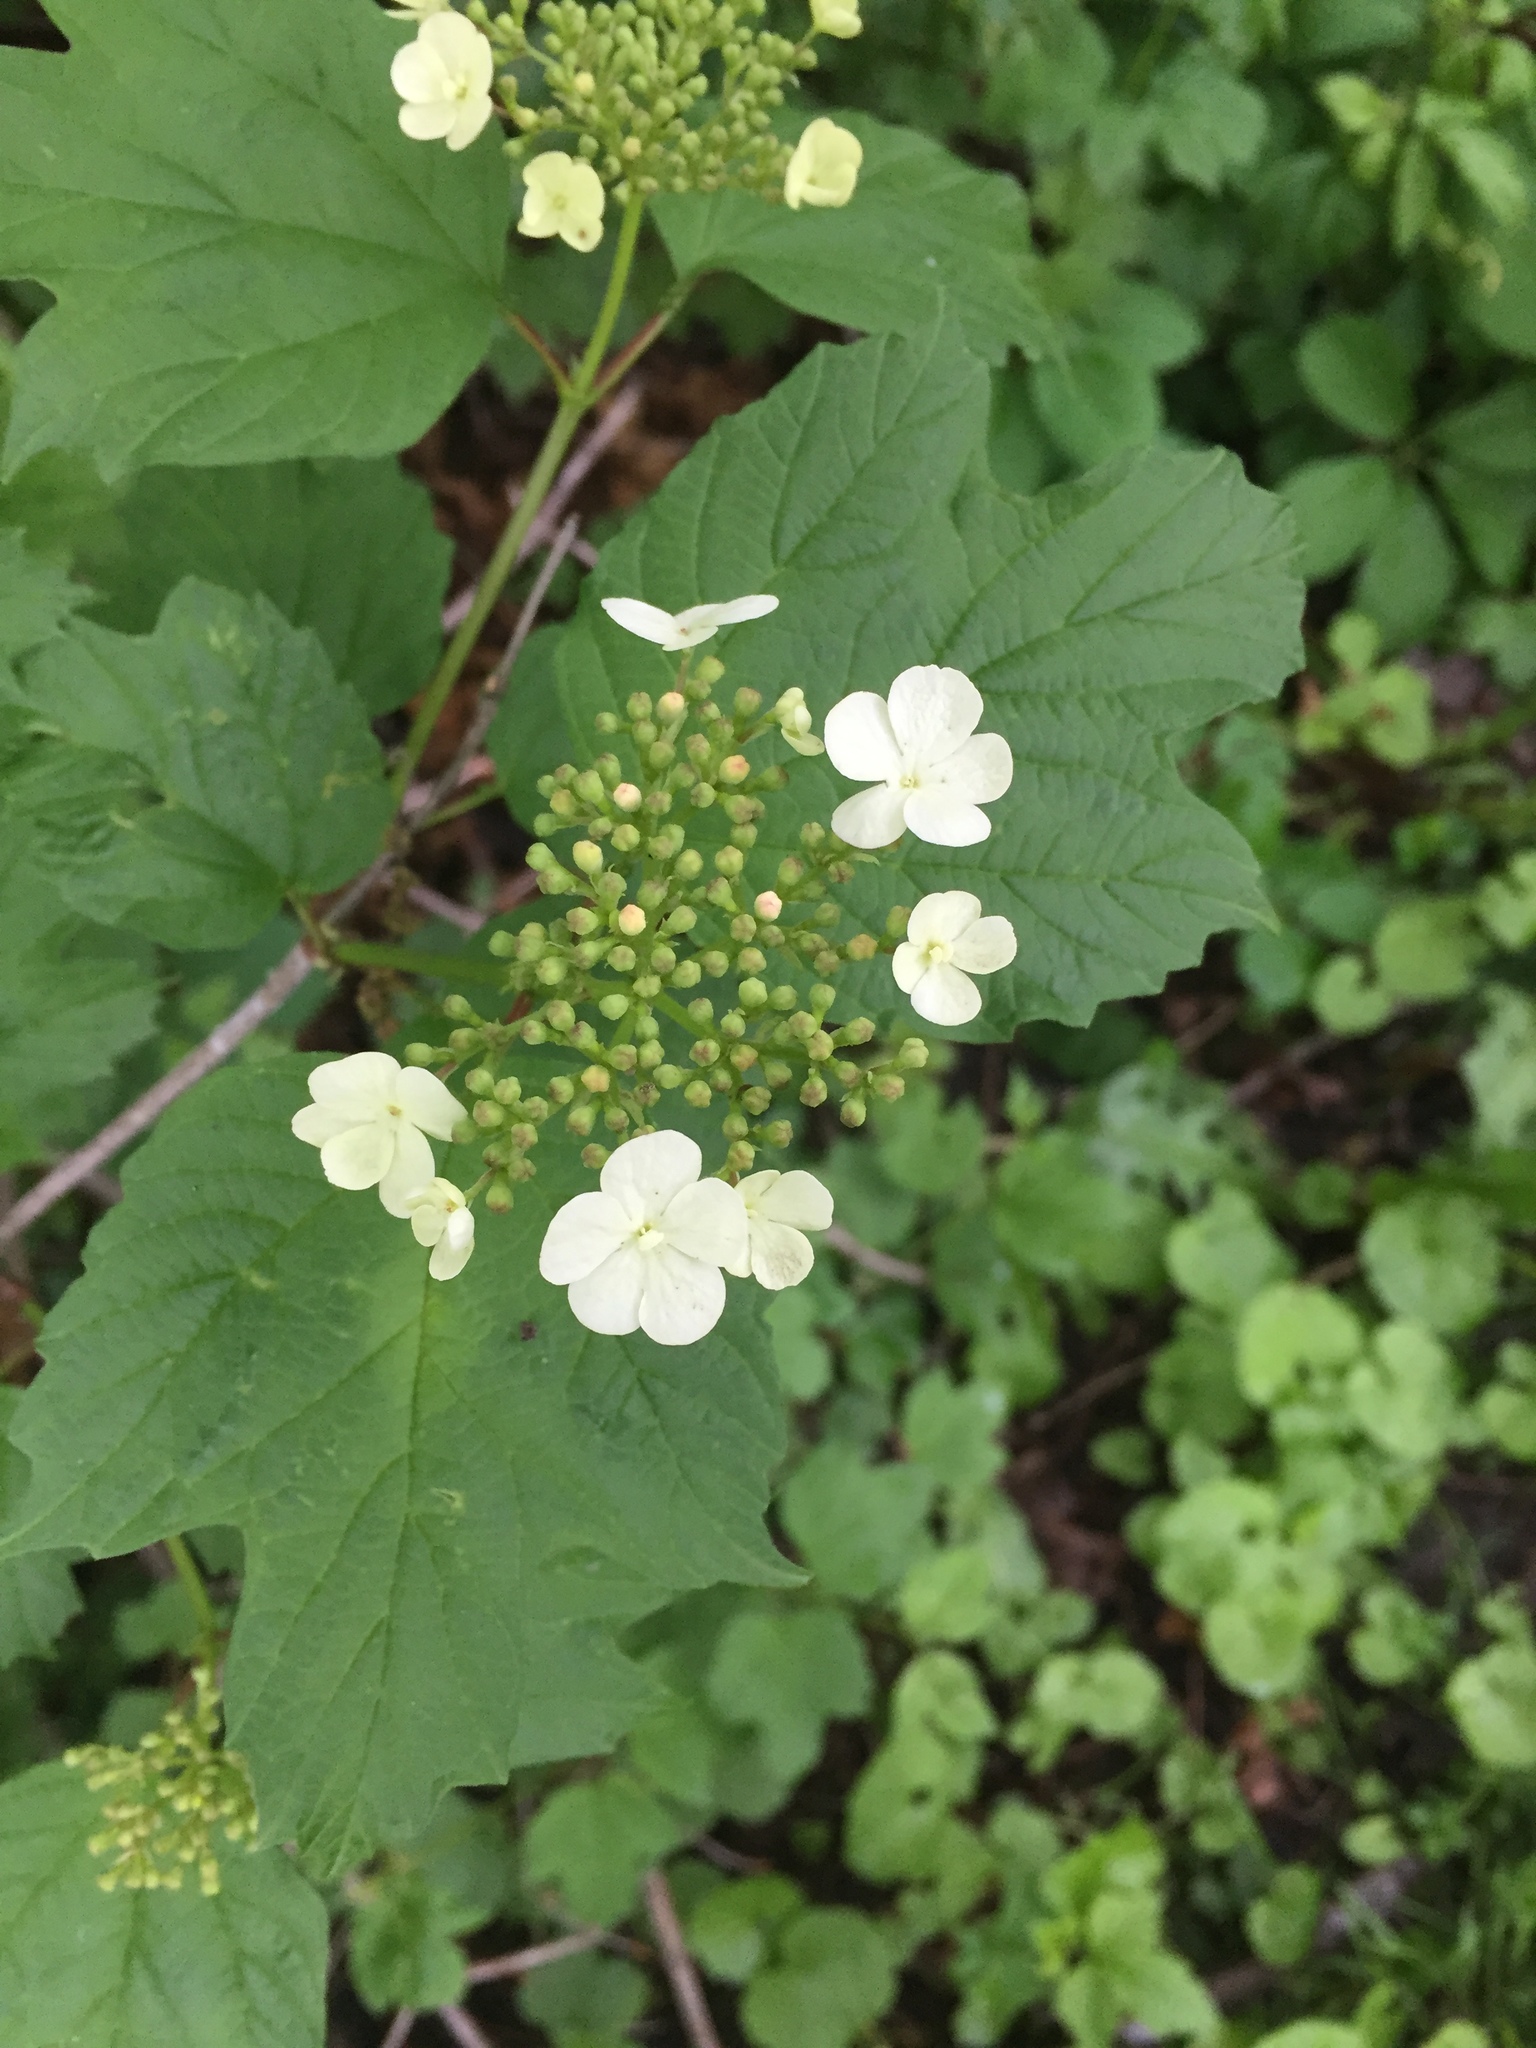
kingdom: Plantae
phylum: Tracheophyta
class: Magnoliopsida
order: Dipsacales
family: Viburnaceae
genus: Viburnum
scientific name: Viburnum opulus
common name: Guelder-rose
